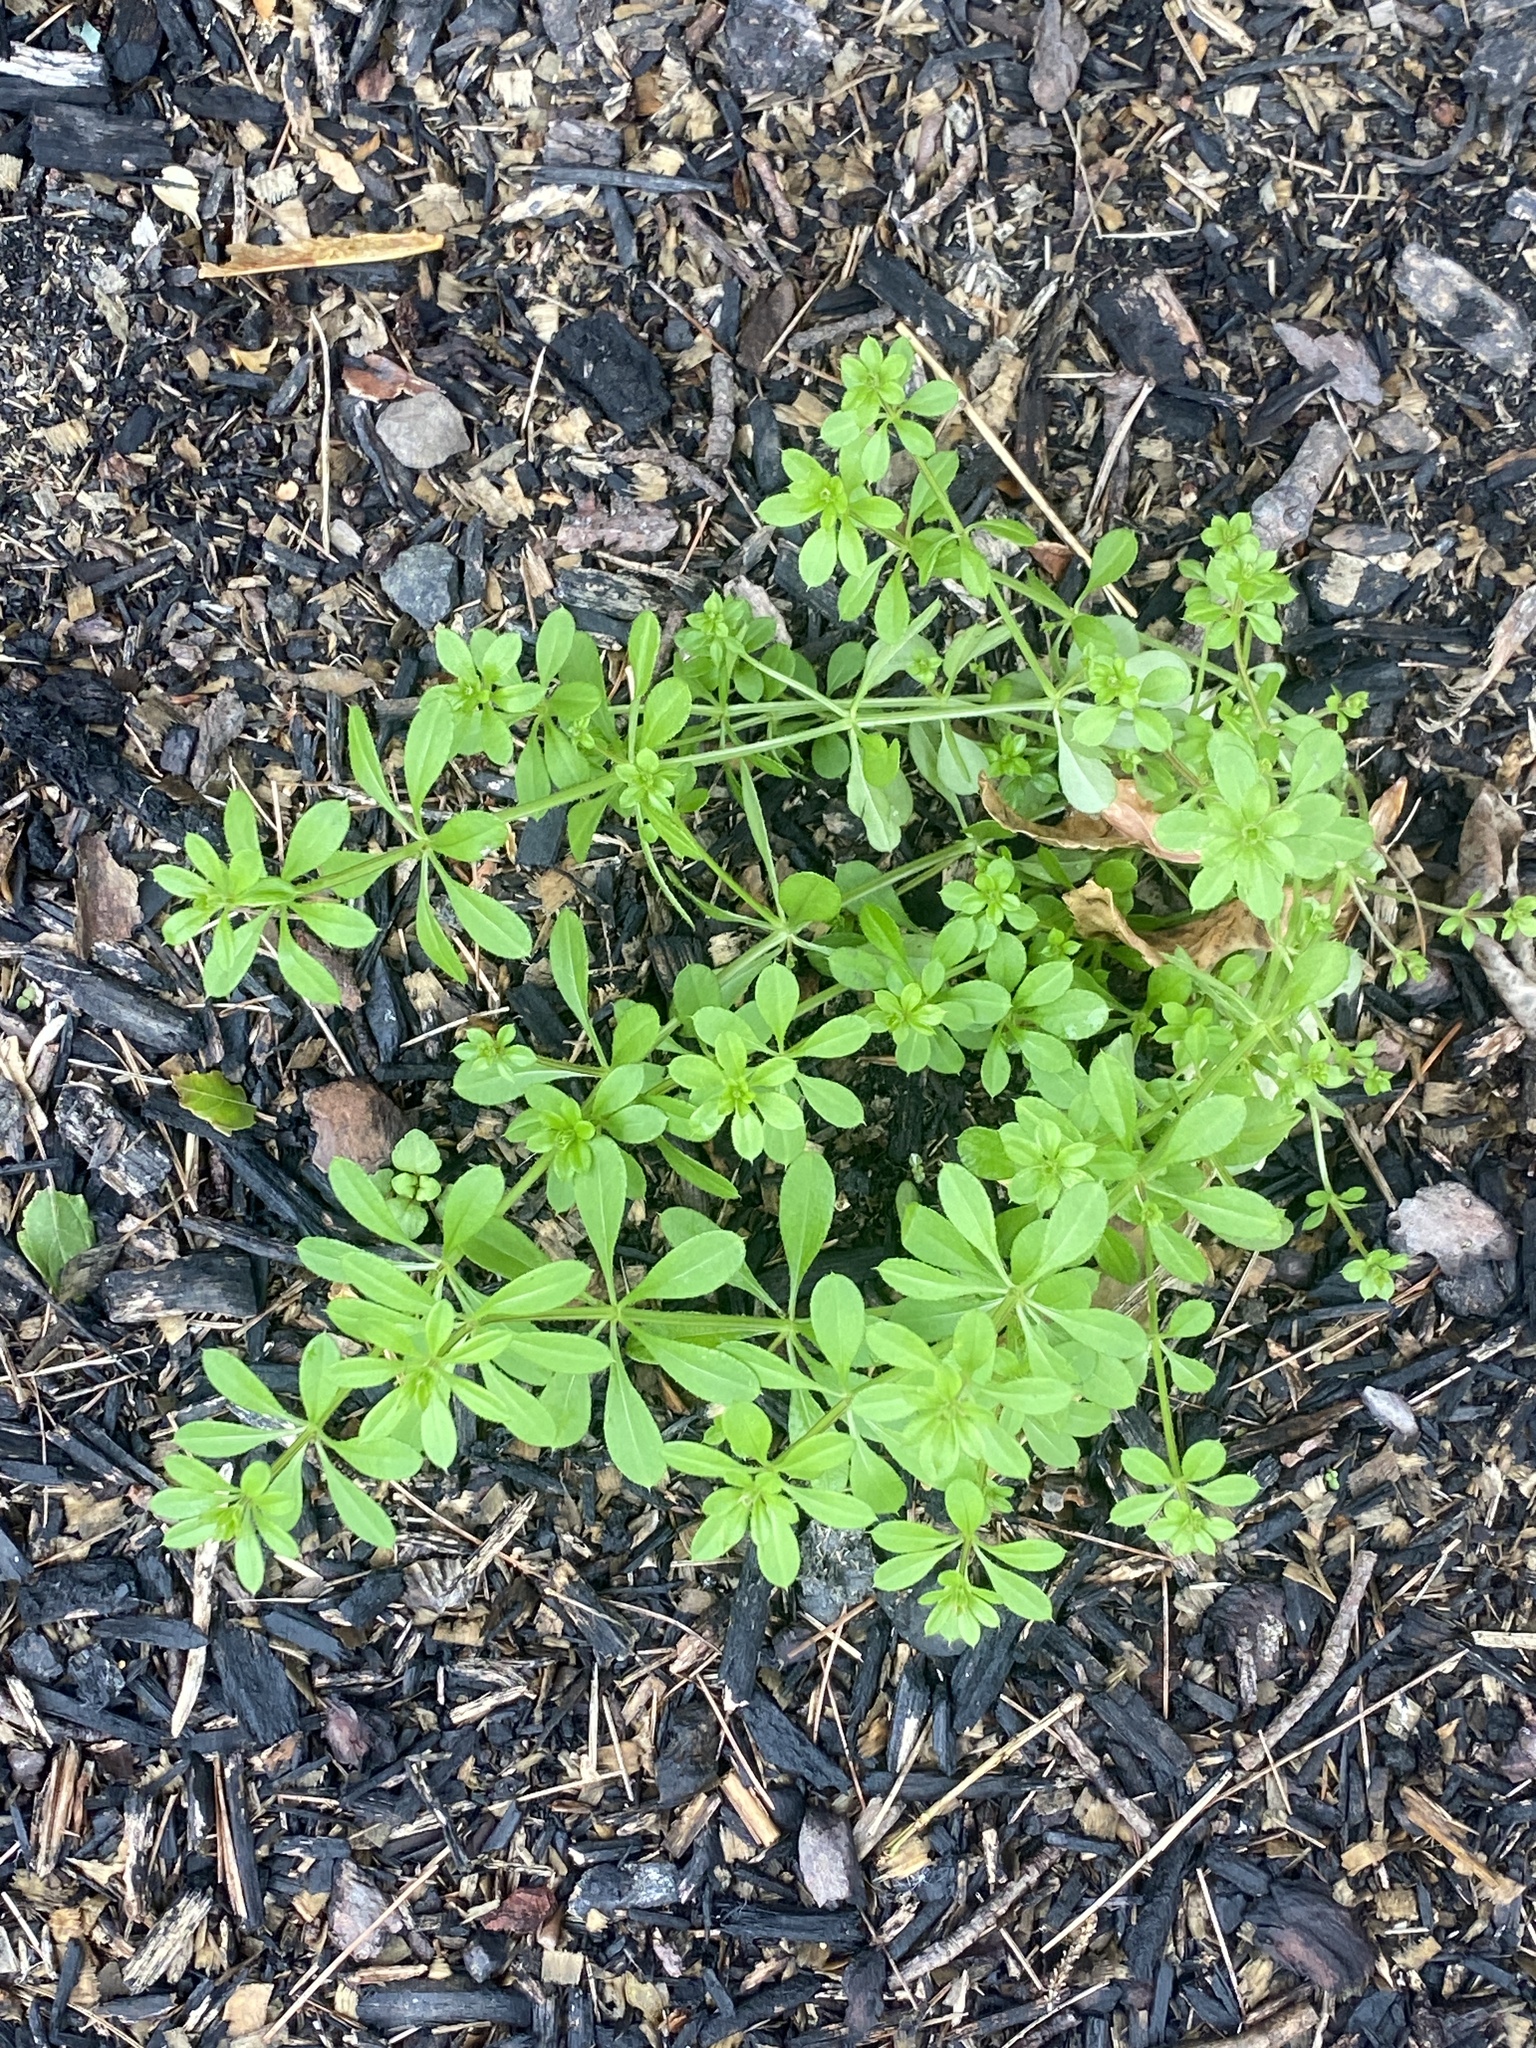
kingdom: Plantae
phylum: Tracheophyta
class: Magnoliopsida
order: Gentianales
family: Rubiaceae
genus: Galium
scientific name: Galium aparine
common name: Cleavers
